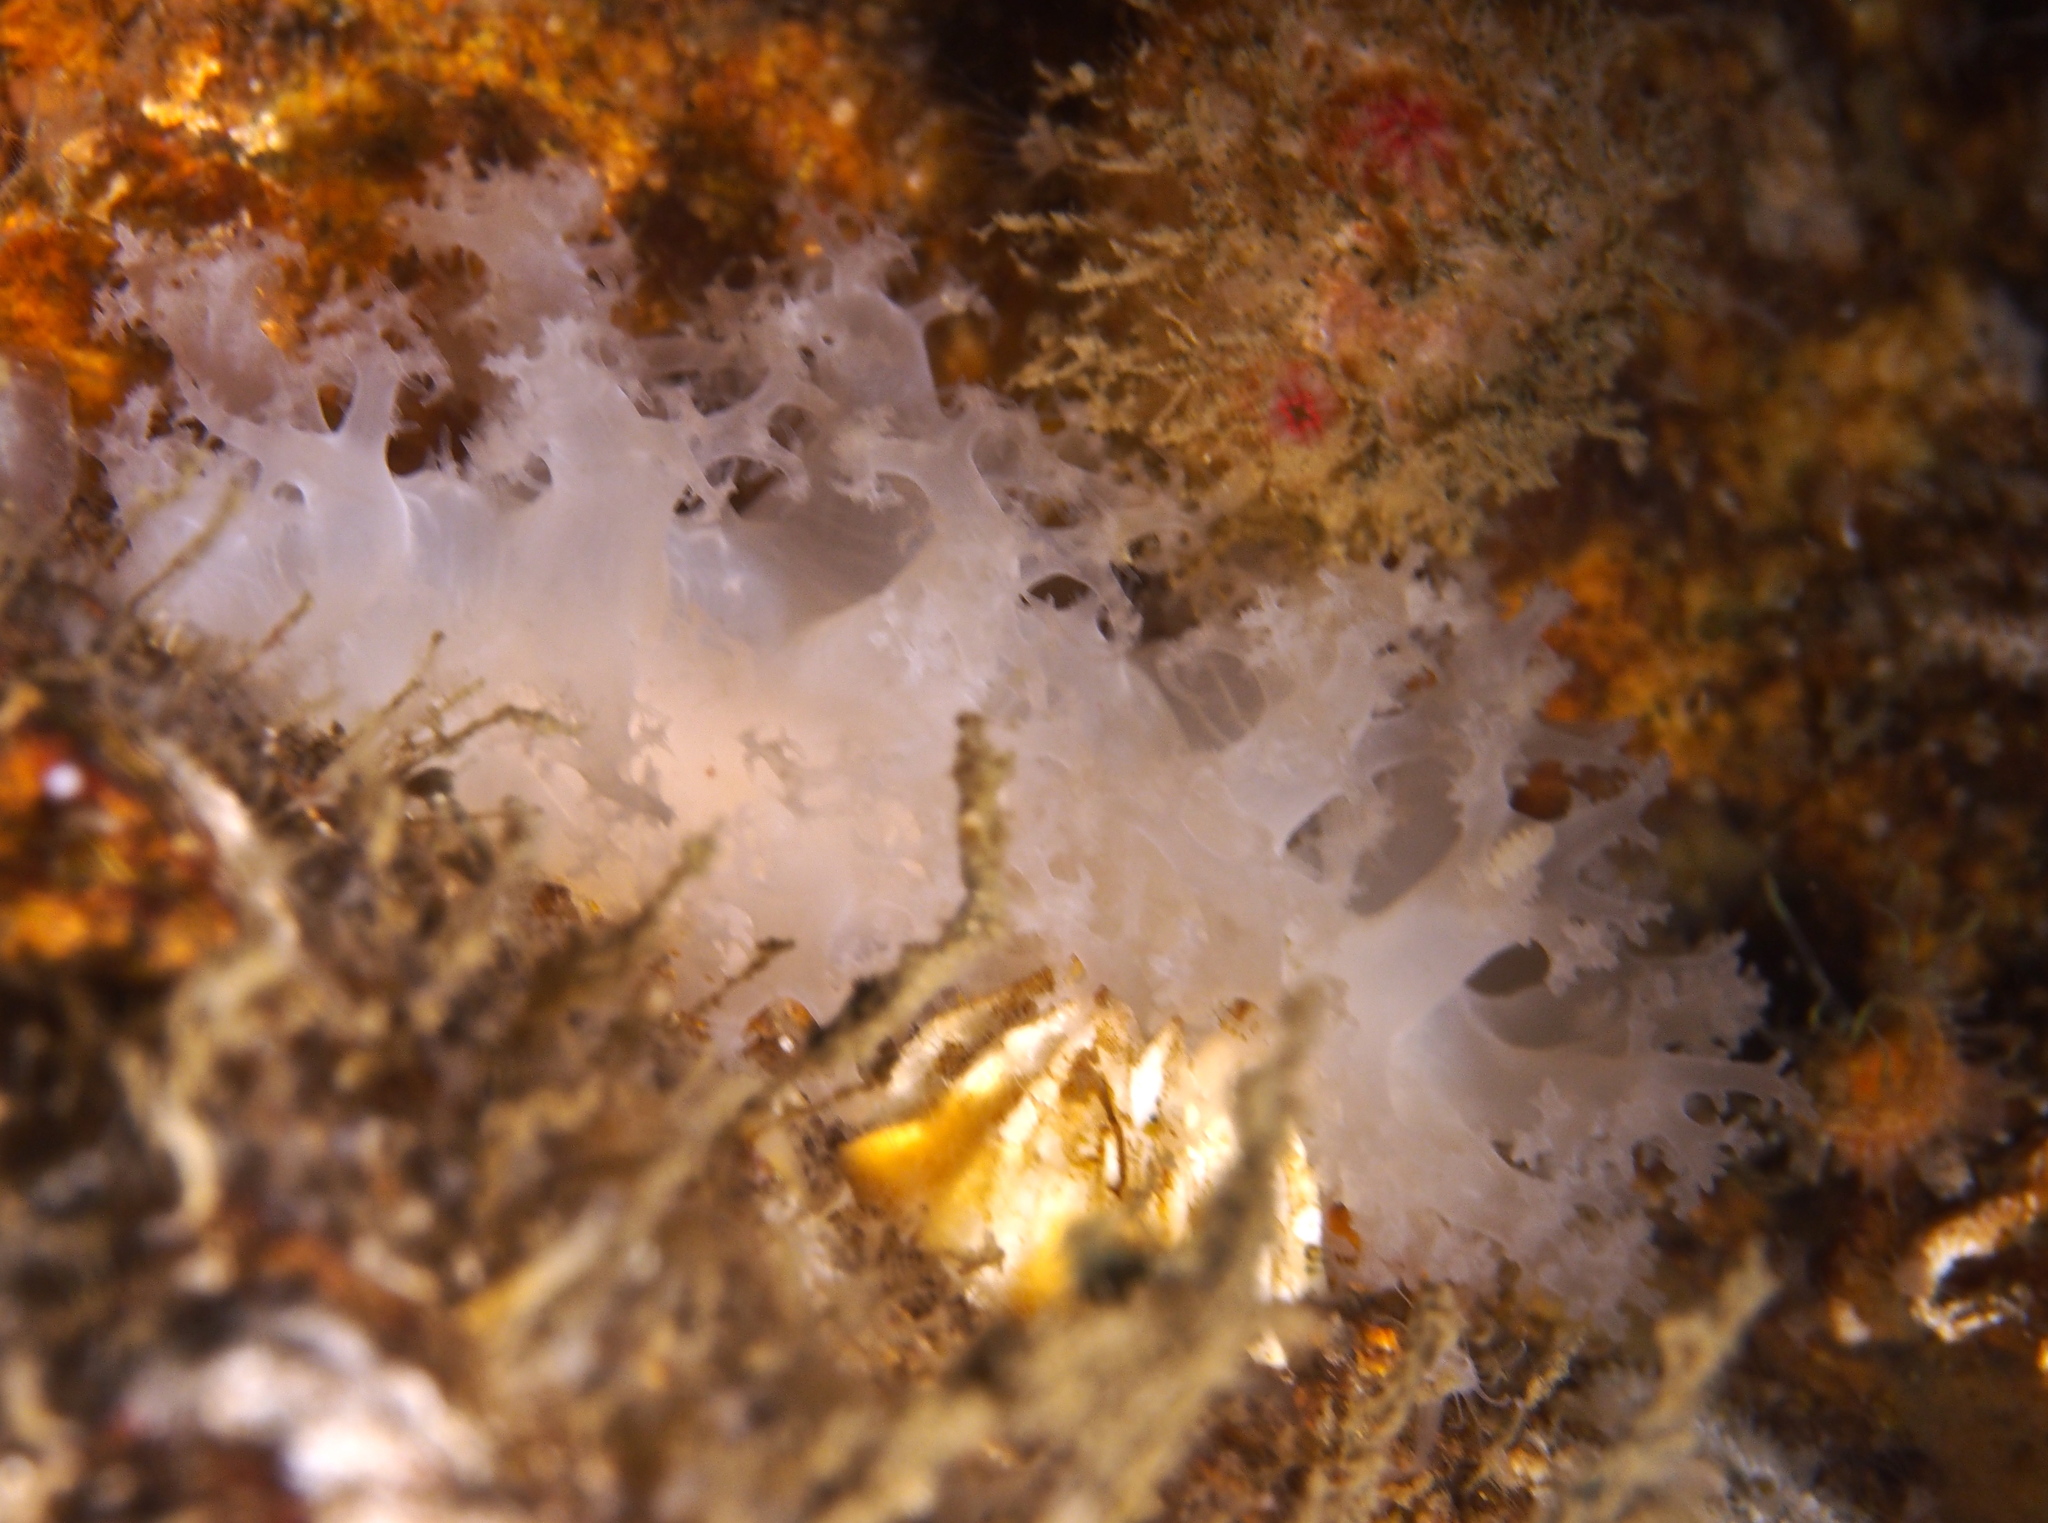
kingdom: Animalia
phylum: Mollusca
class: Gastropoda
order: Nudibranchia
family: Dendronotidae
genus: Dendronotus
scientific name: Dendronotus lacteus
